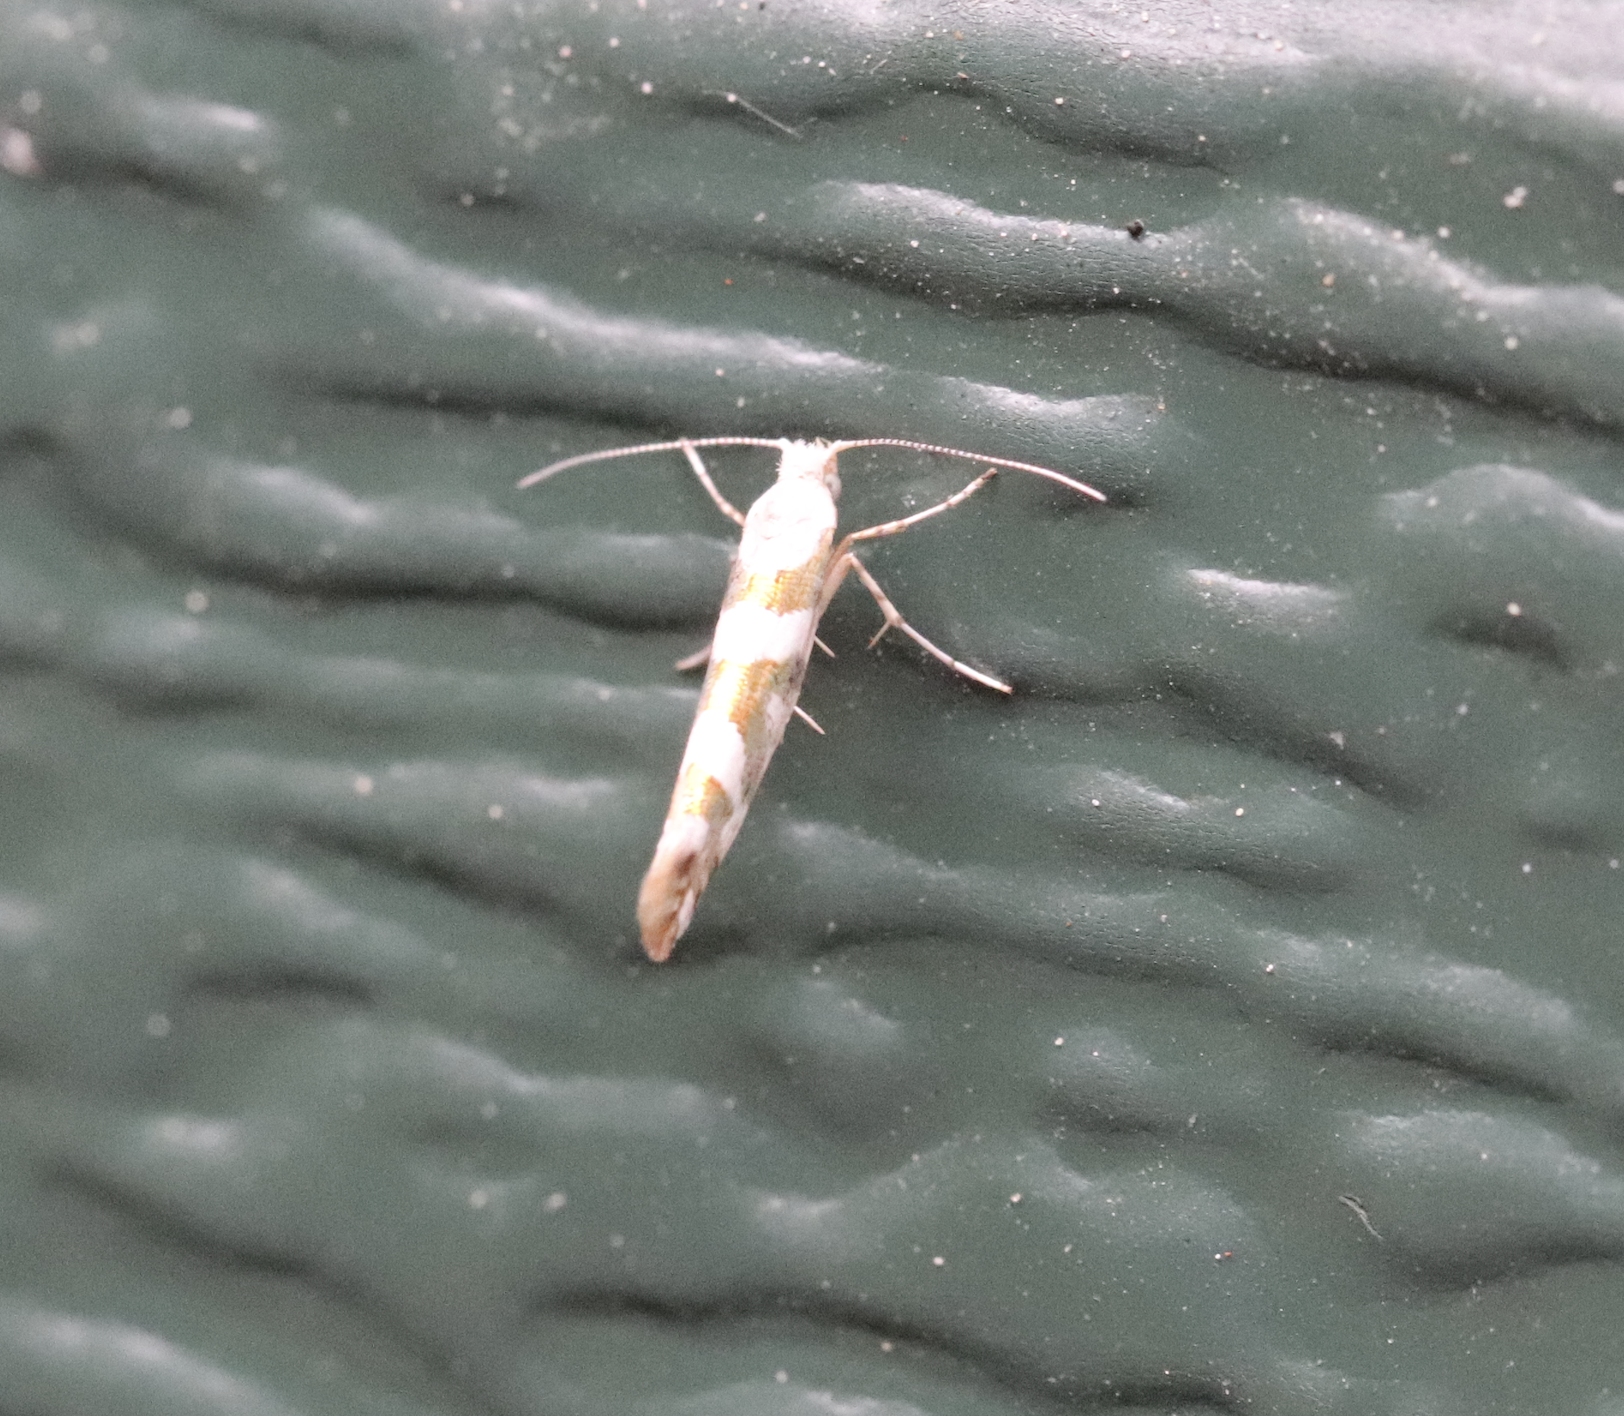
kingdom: Animalia
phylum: Arthropoda
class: Insecta
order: Lepidoptera
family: Argyresthiidae
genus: Argyresthia
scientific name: Argyresthia calliphanes
